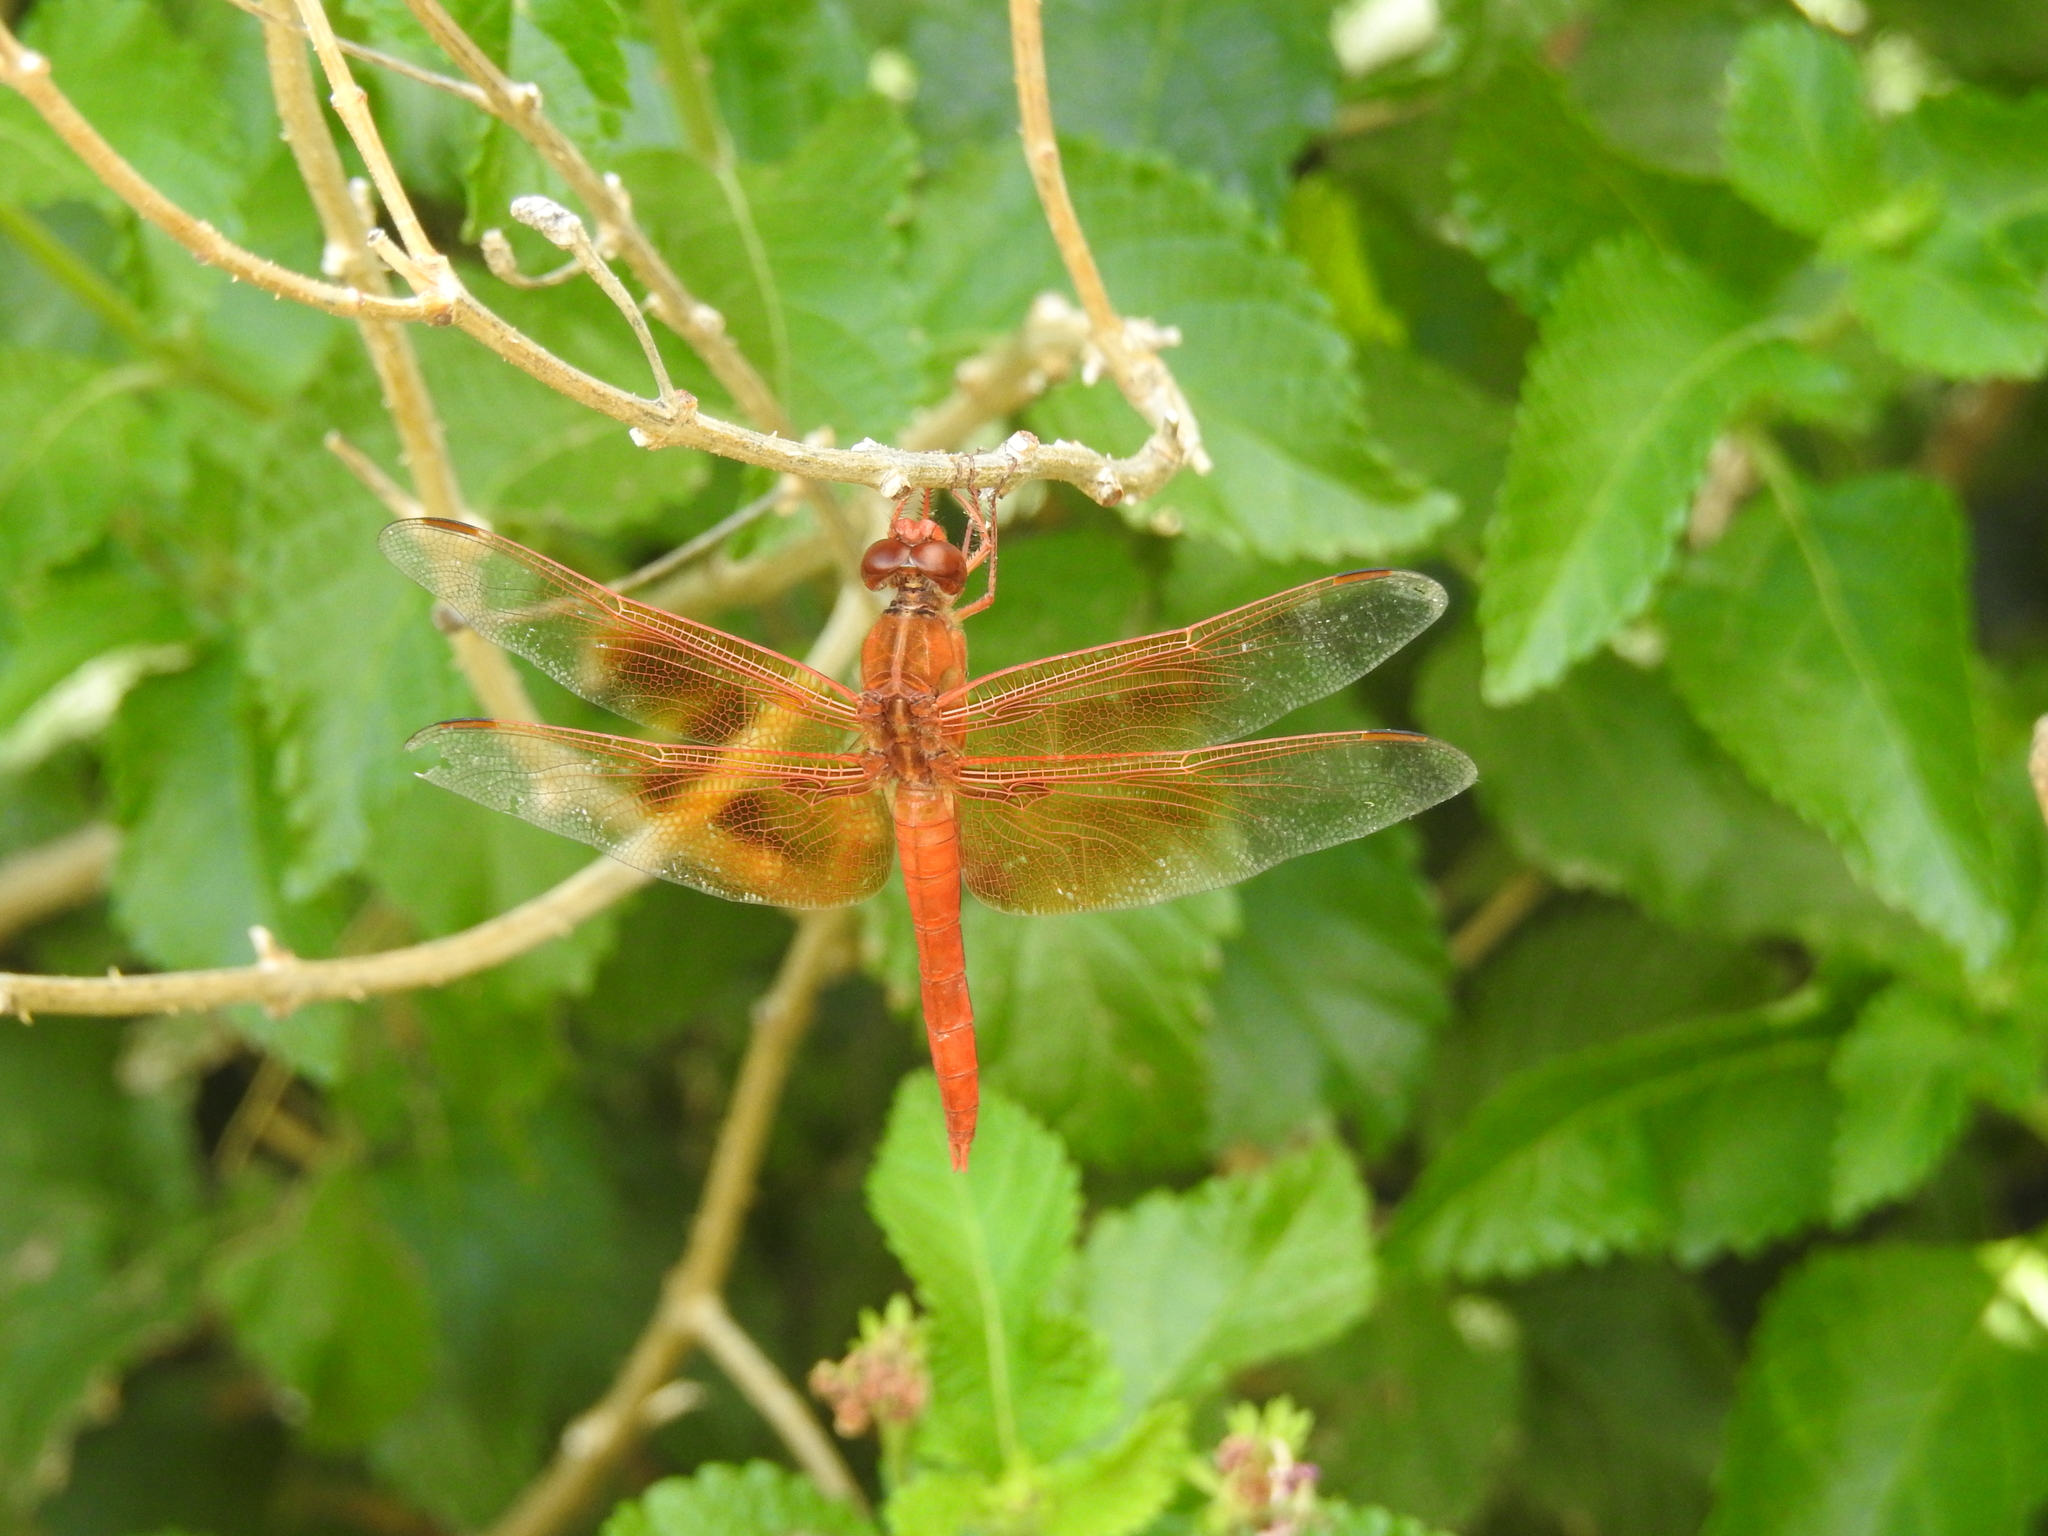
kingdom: Animalia
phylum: Arthropoda
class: Insecta
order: Odonata
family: Libellulidae
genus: Libellula
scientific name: Libellula saturata
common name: Flame skimmer
